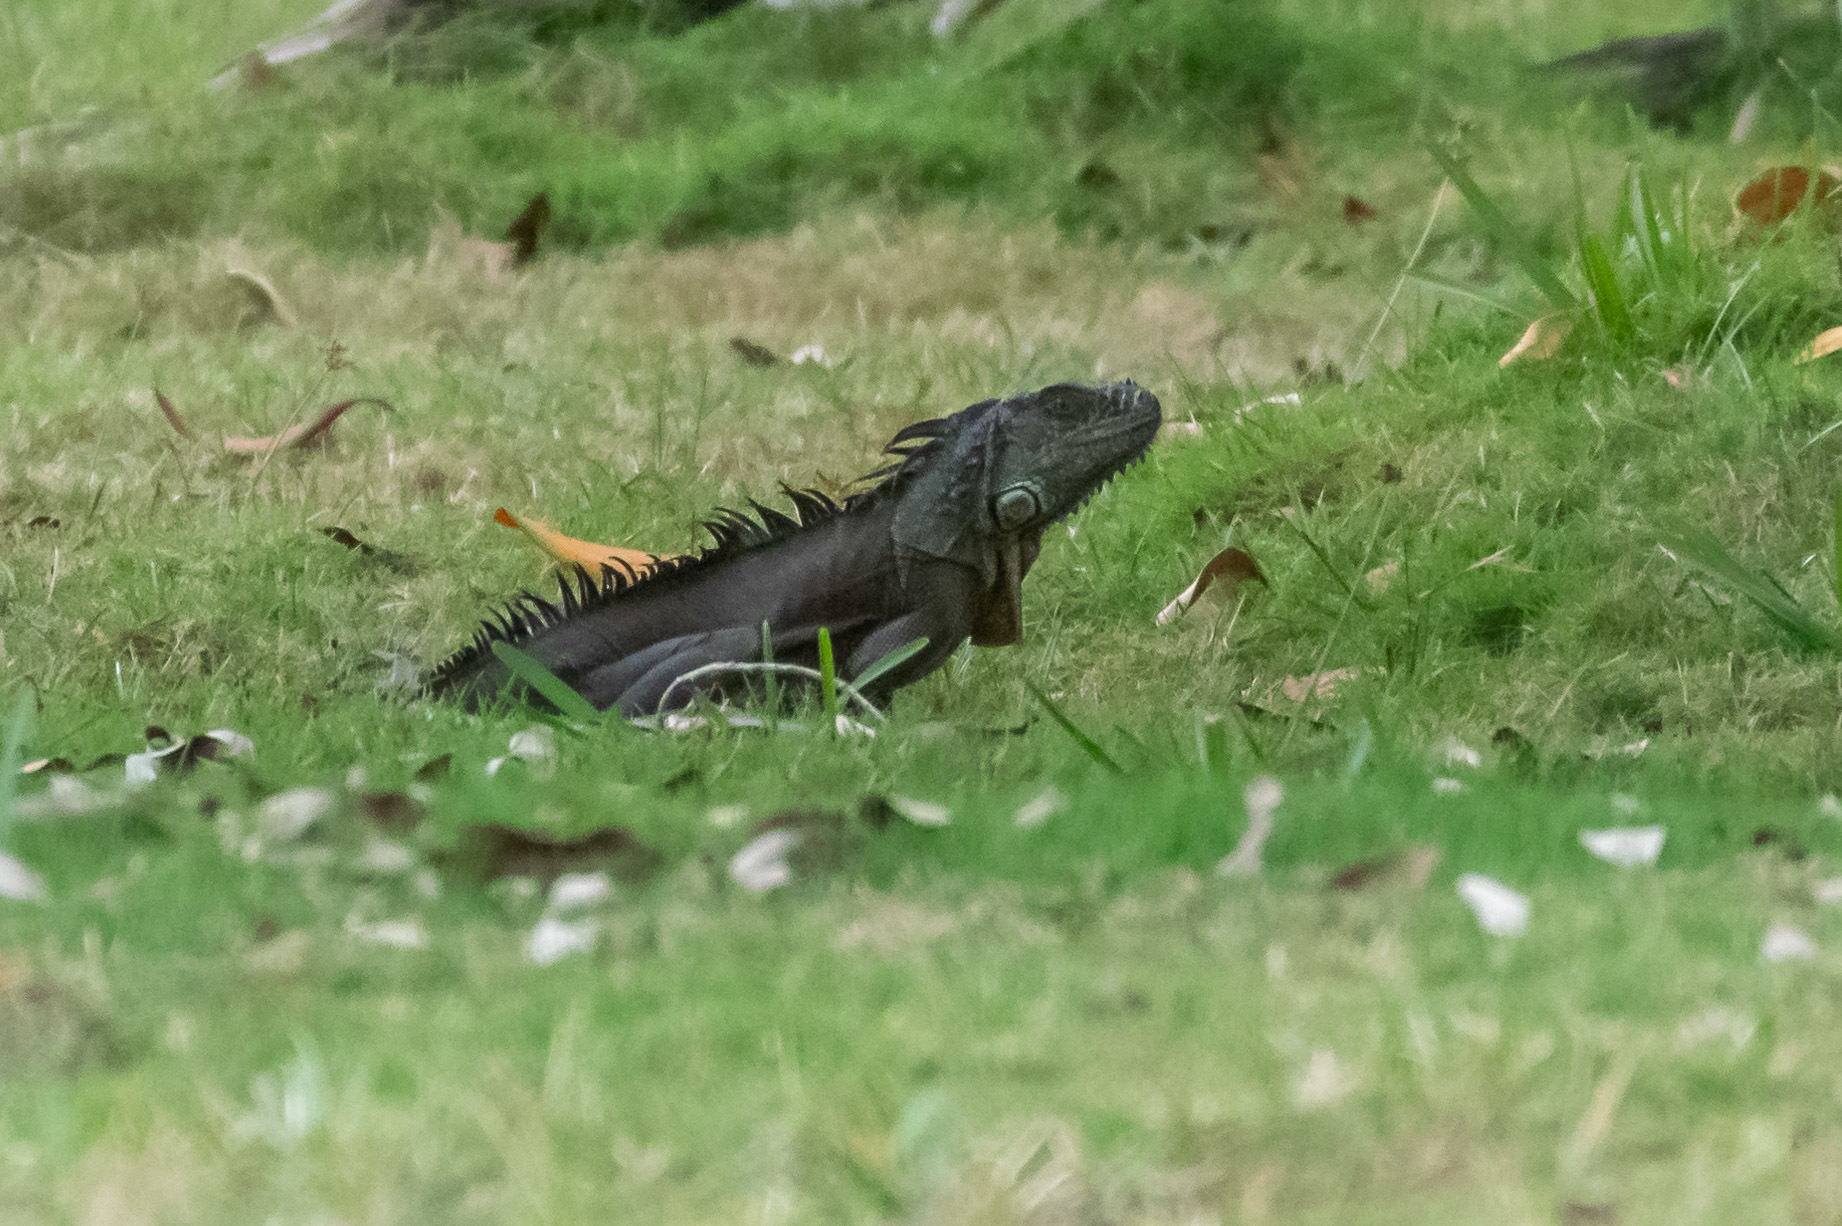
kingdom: Animalia
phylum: Chordata
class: Squamata
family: Iguanidae
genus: Iguana
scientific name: Iguana iguana
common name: Green iguana
